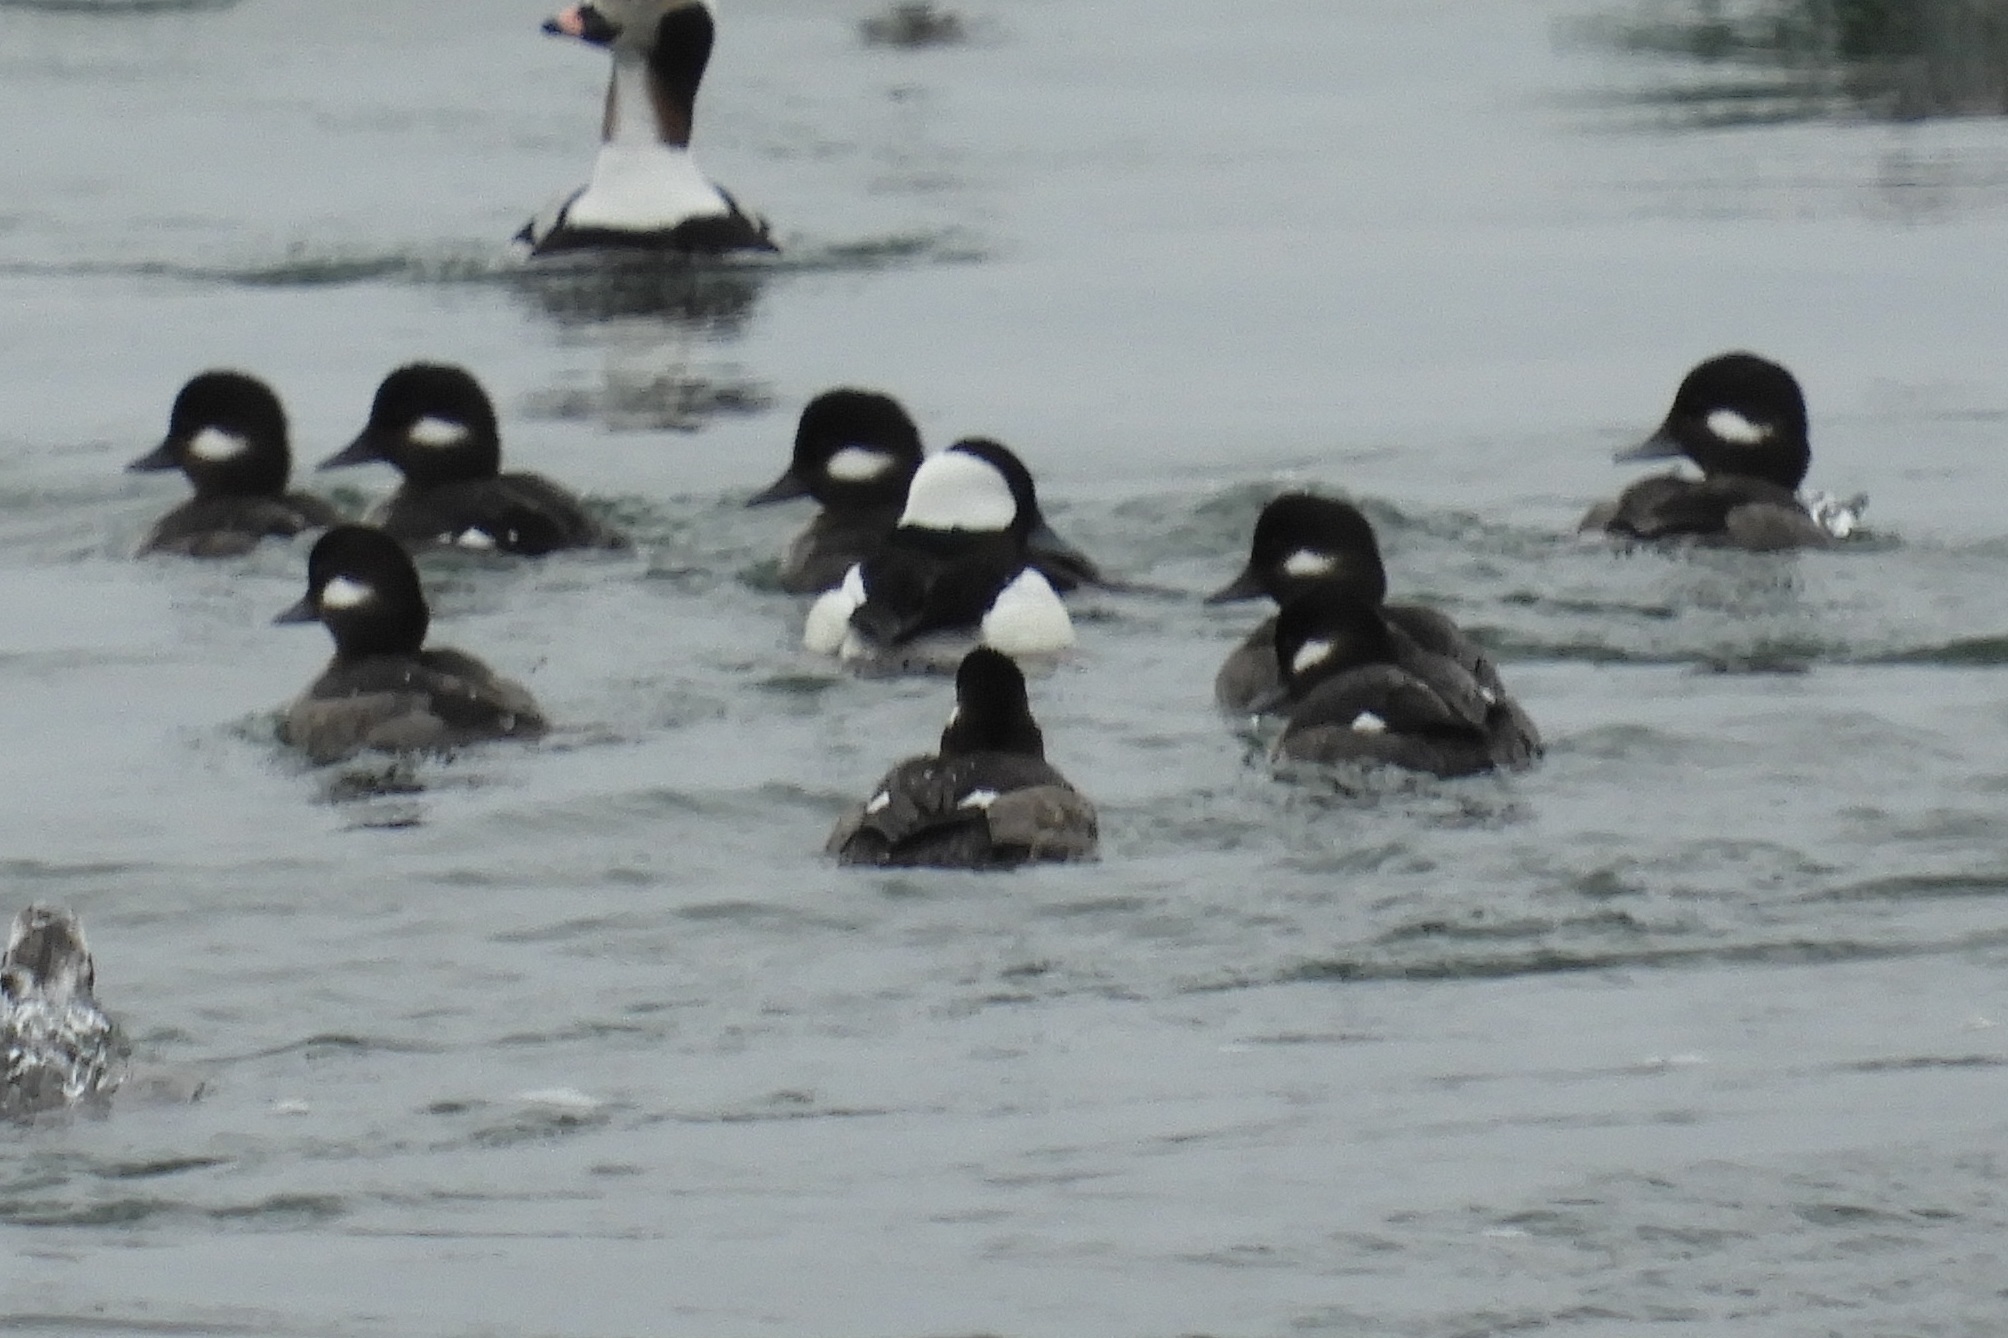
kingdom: Animalia
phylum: Chordata
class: Aves
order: Anseriformes
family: Anatidae
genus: Bucephala
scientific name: Bucephala albeola
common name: Bufflehead
